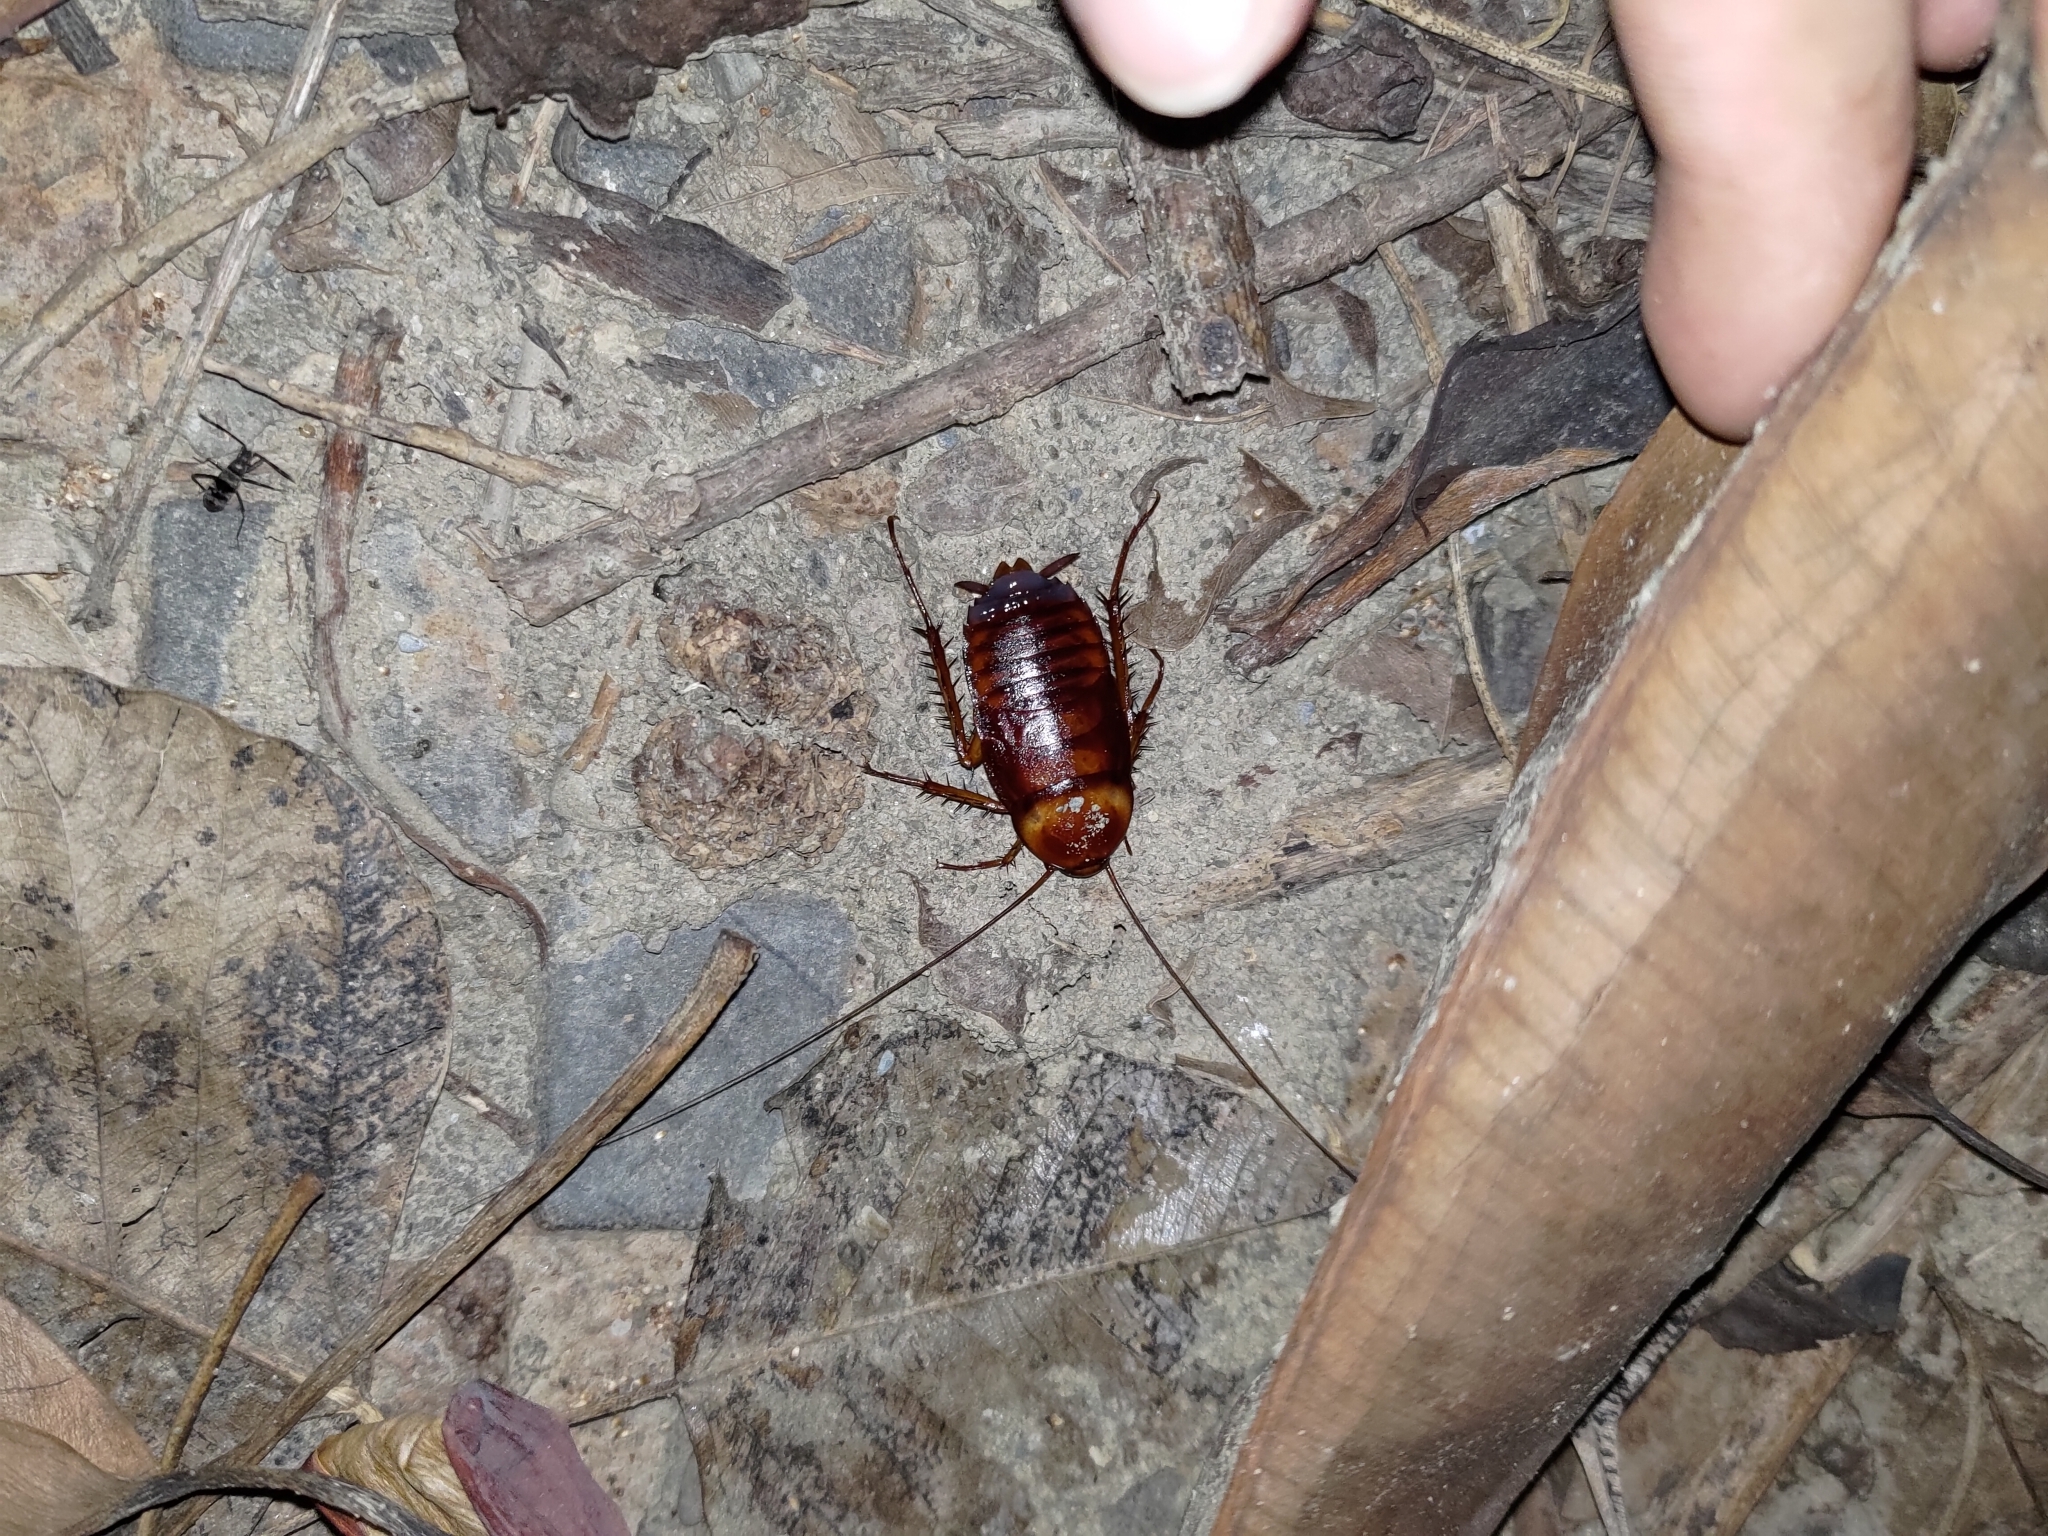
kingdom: Animalia
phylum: Arthropoda
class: Insecta
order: Blattodea
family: Blattidae
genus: Periplaneta
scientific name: Periplaneta americana
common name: American cockroach
